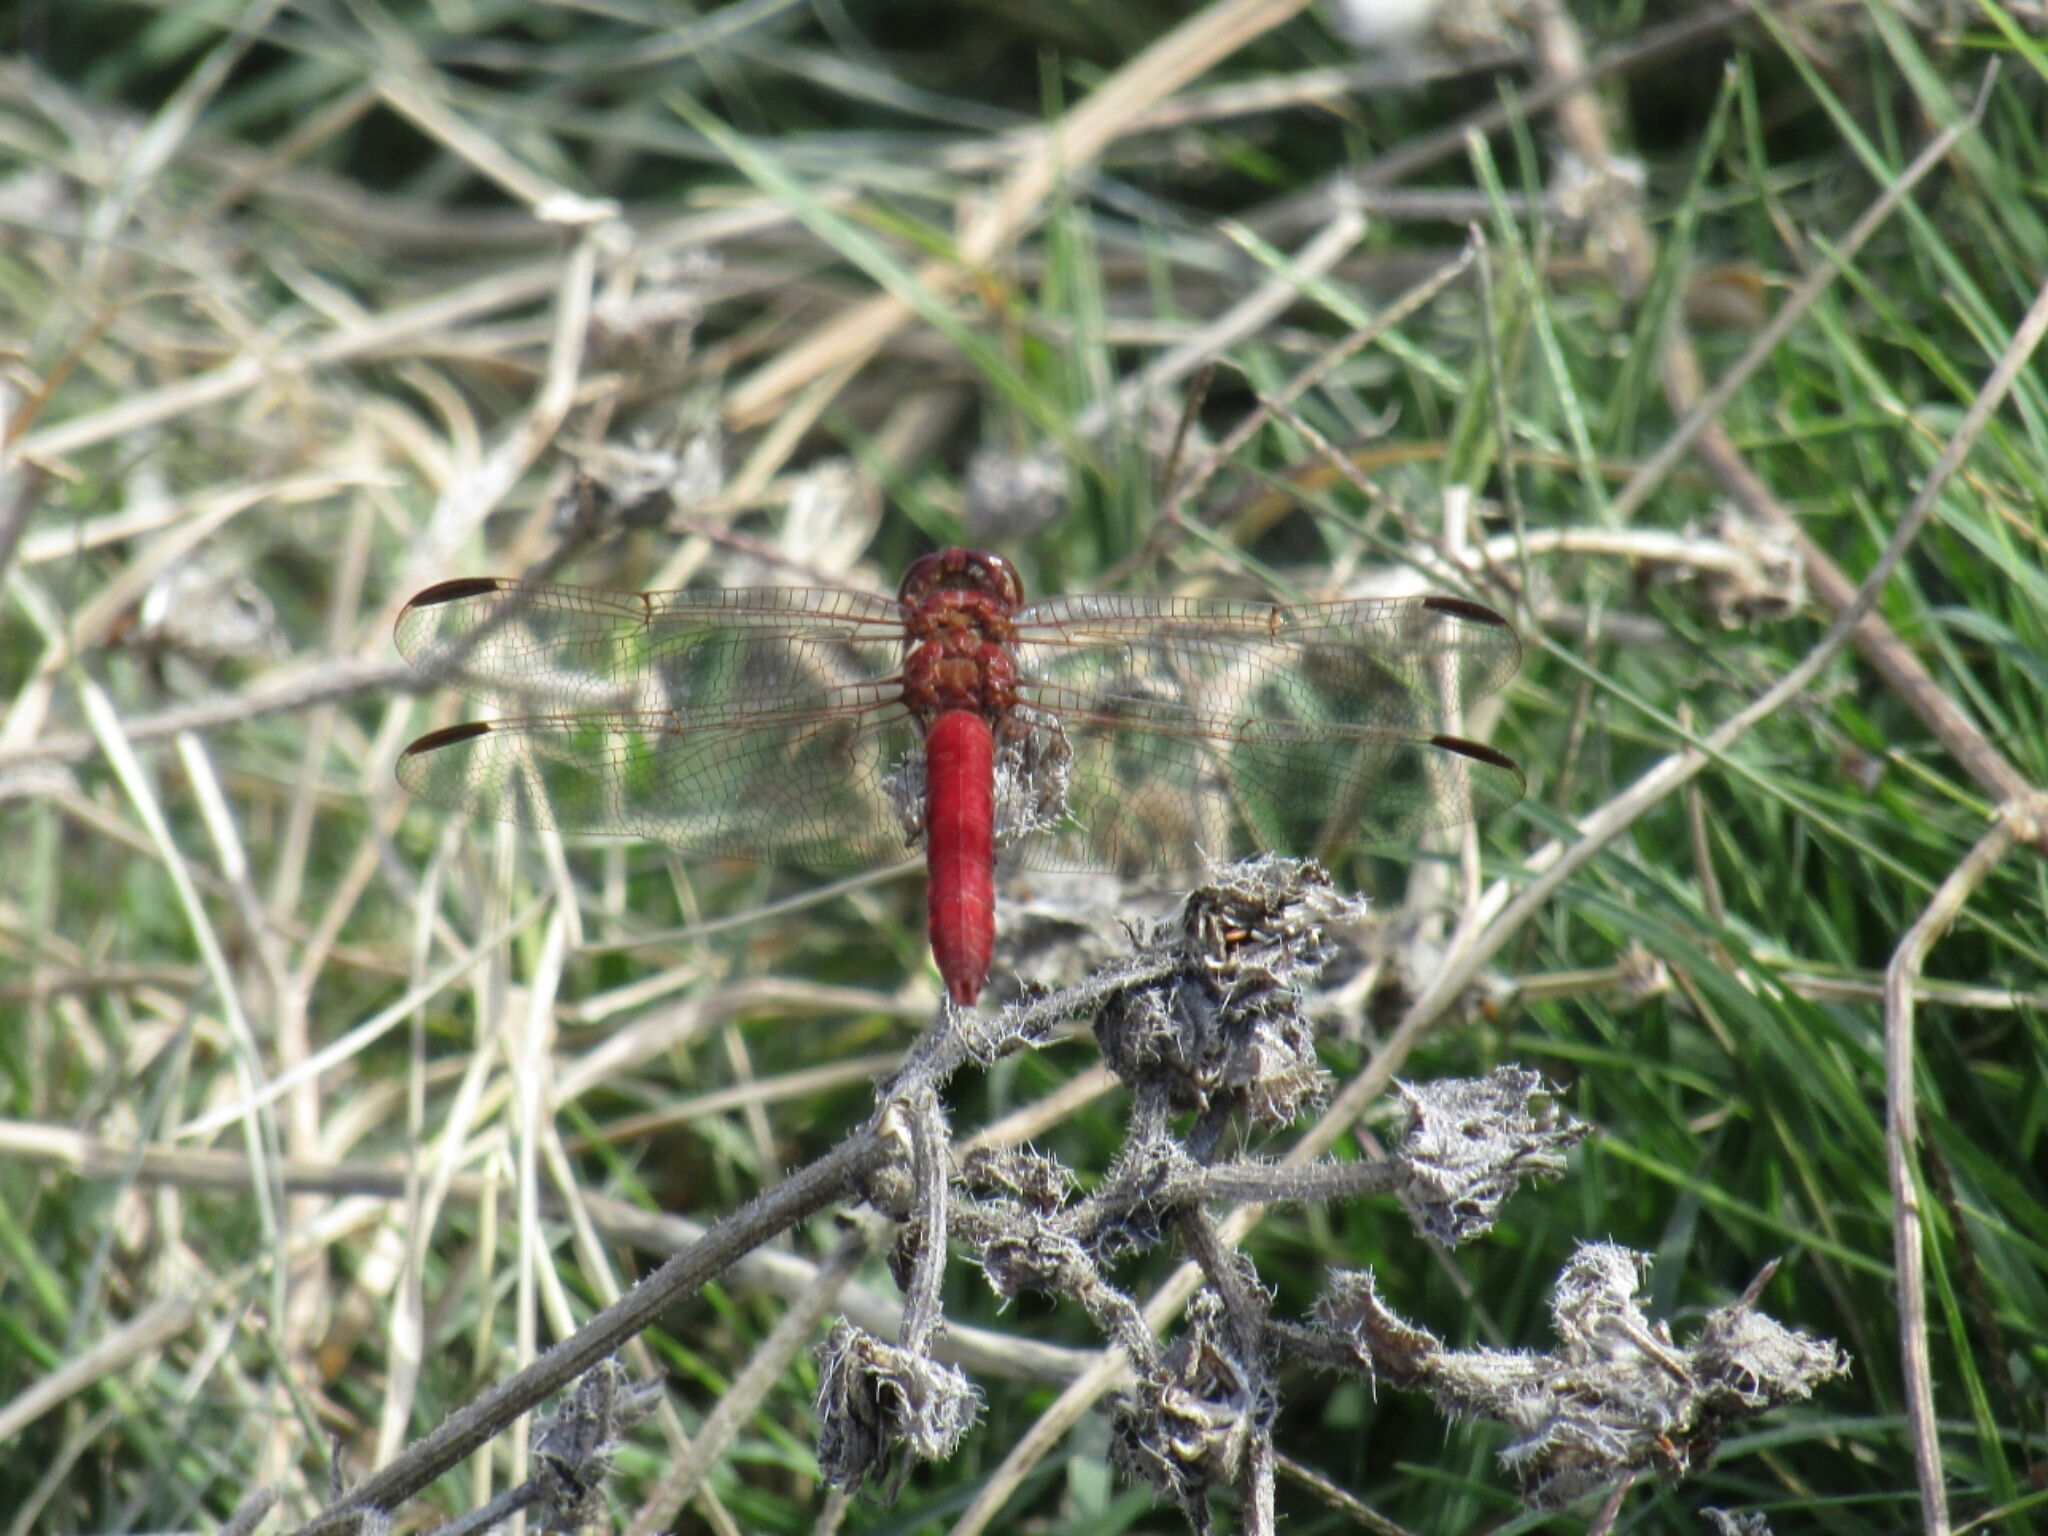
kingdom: Animalia
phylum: Arthropoda
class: Insecta
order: Odonata
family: Libellulidae
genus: Orthemis
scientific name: Orthemis nodiplaga
